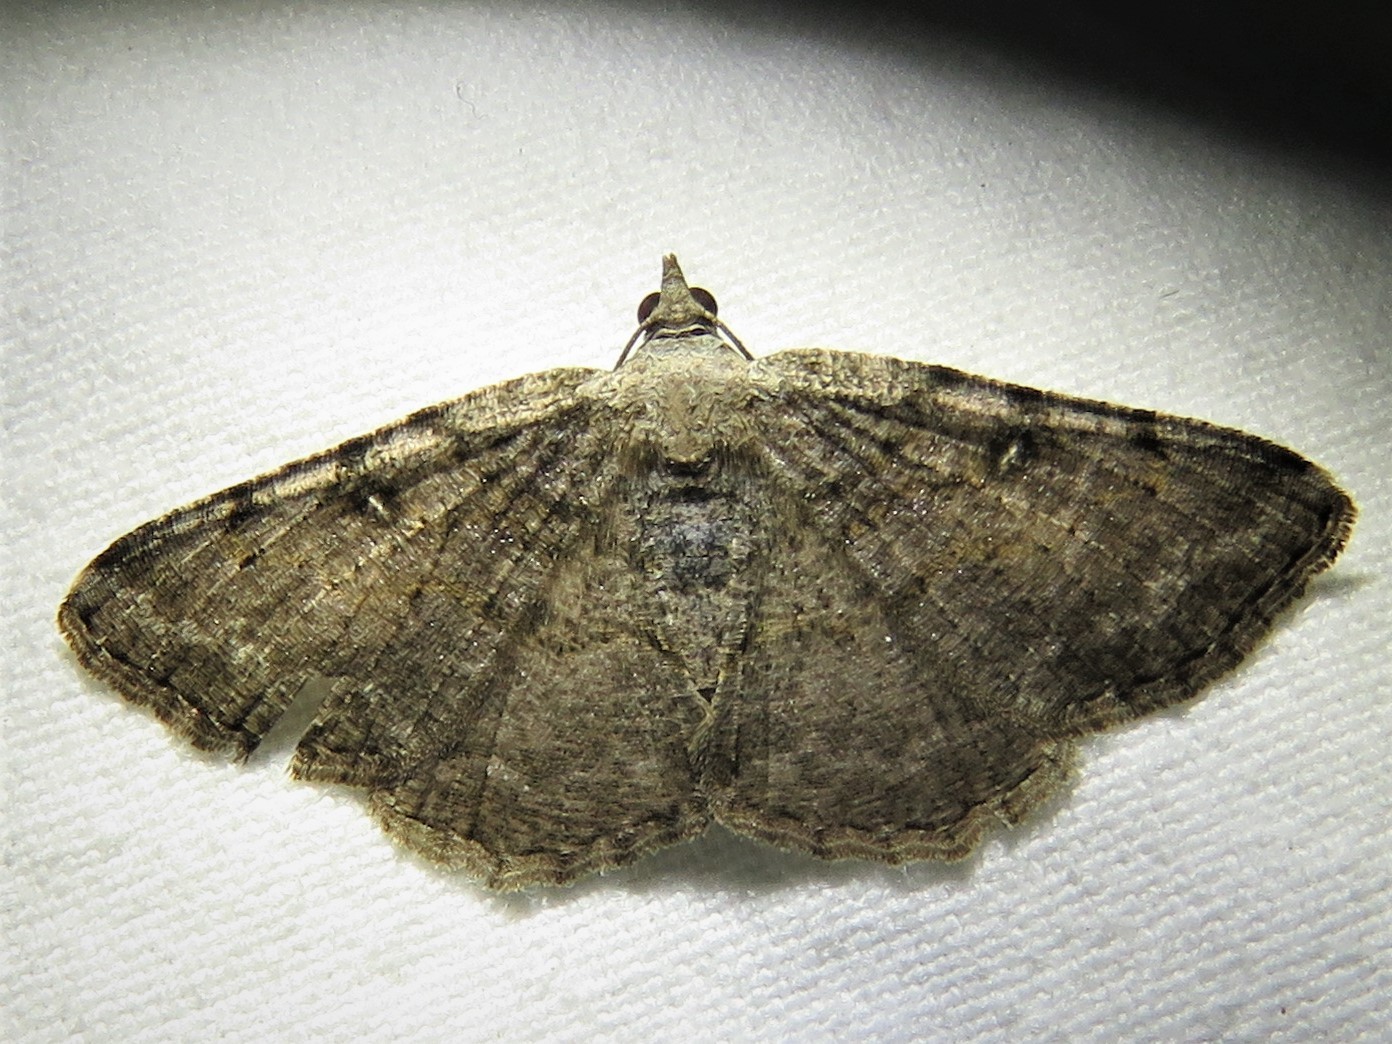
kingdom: Animalia
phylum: Arthropoda
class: Insecta
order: Lepidoptera
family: Geometridae
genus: Digrammia
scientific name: Digrammia gnophosaria
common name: Hollow-spotted angle
